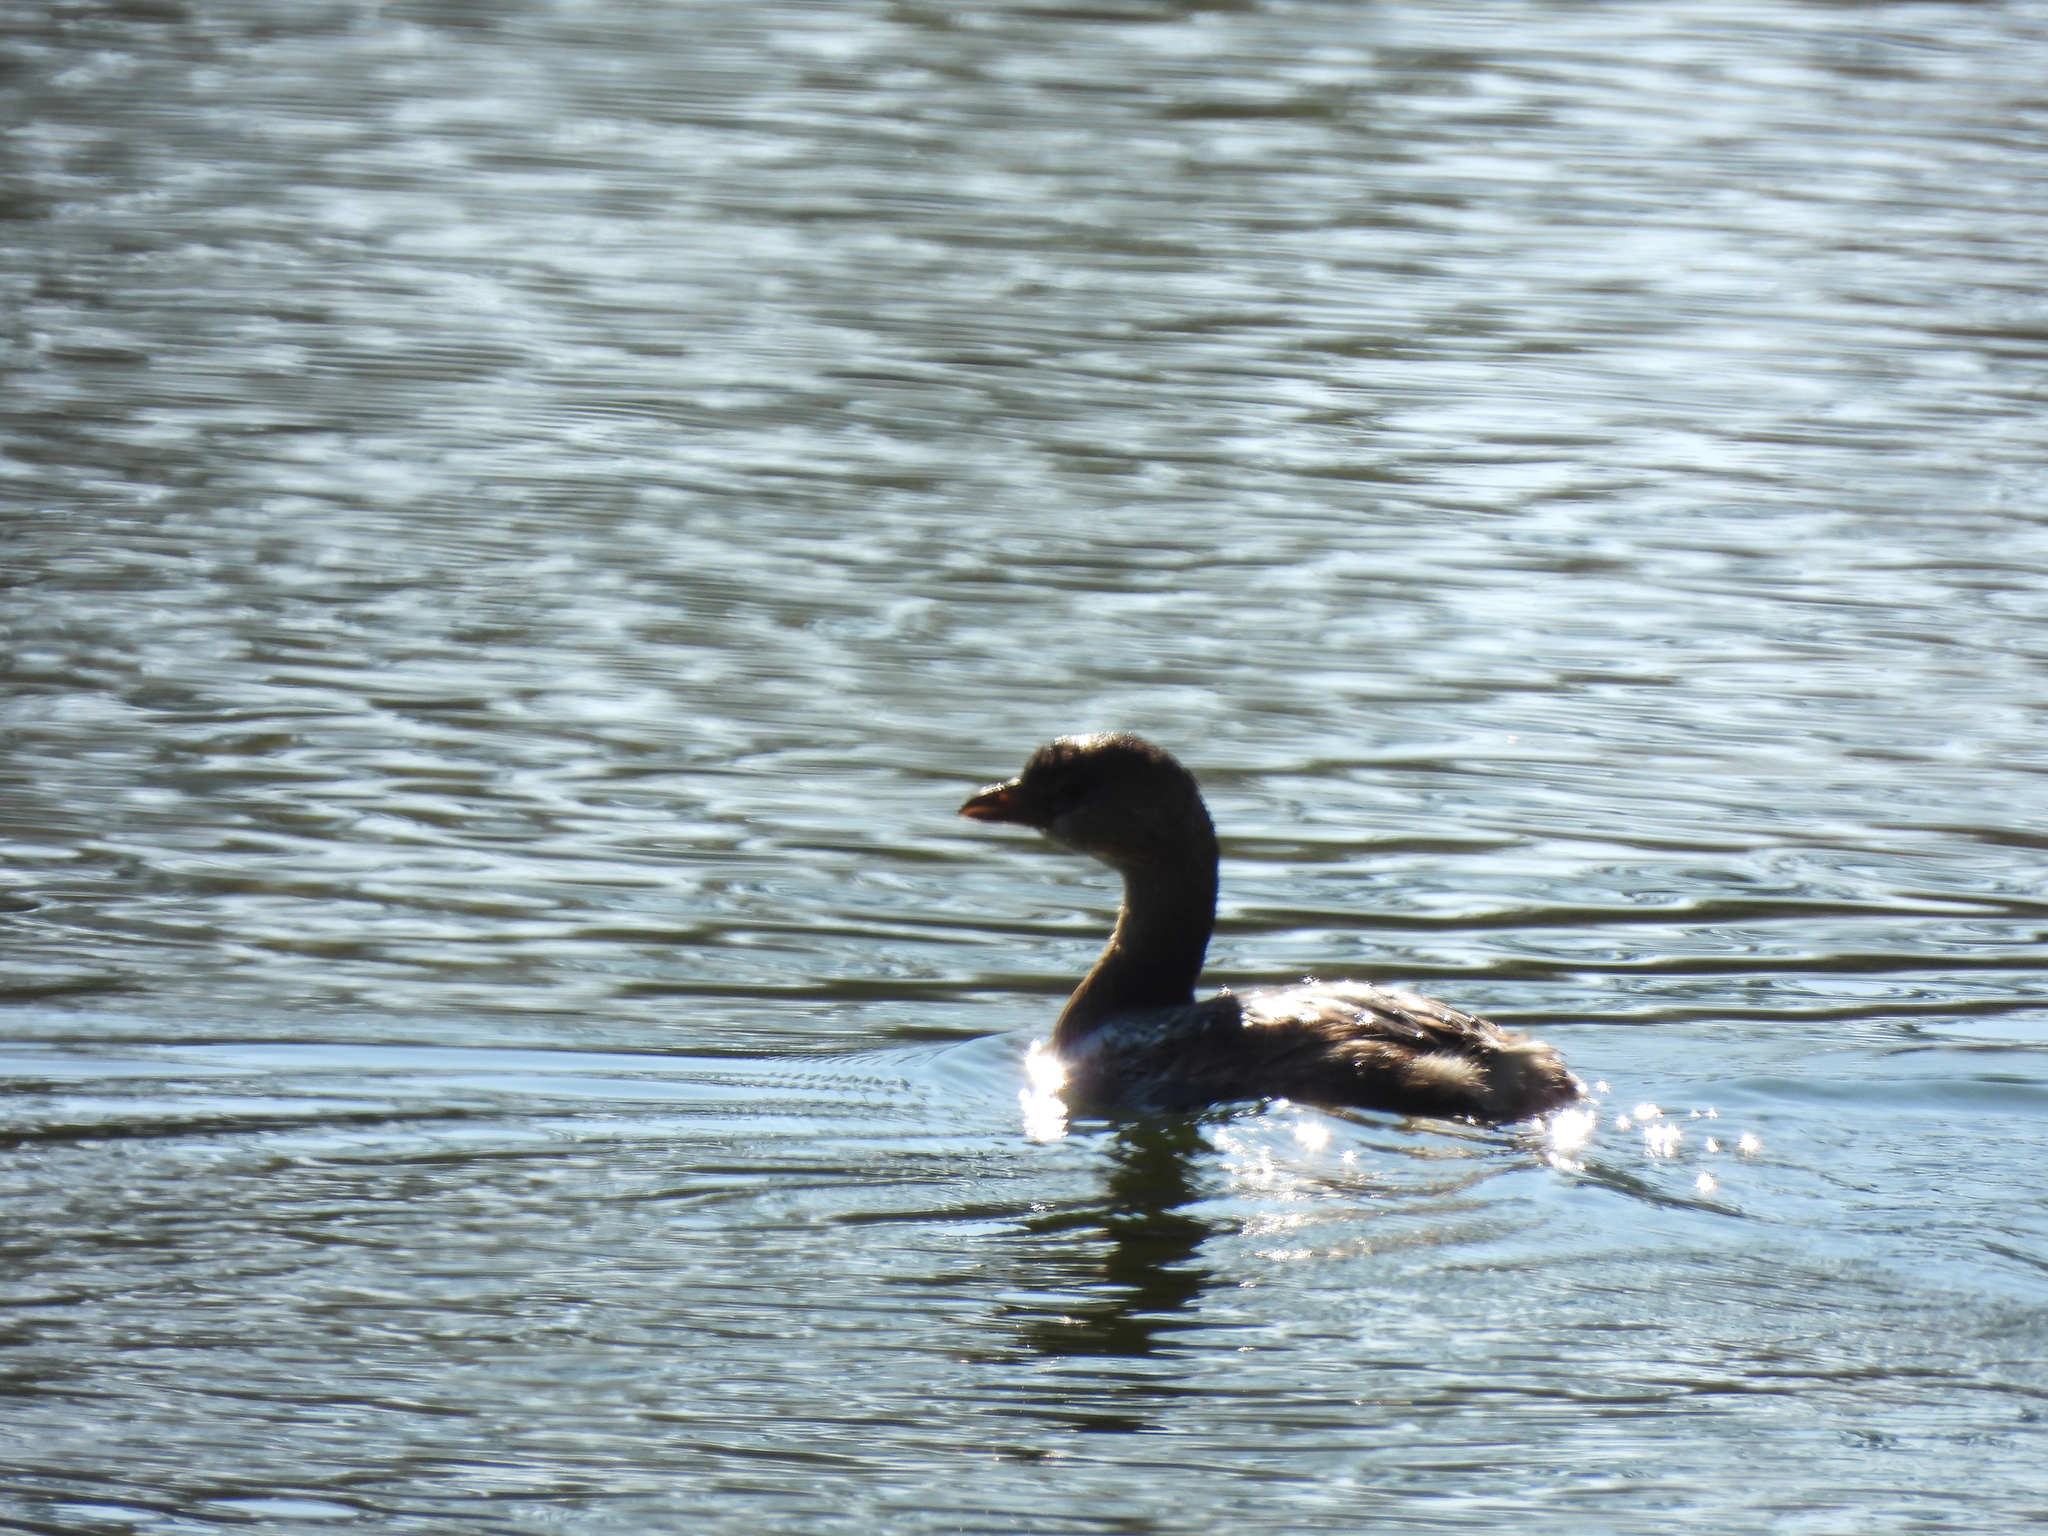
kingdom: Animalia
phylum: Chordata
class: Aves
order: Podicipediformes
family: Podicipedidae
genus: Podilymbus
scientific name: Podilymbus podiceps
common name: Pied-billed grebe
